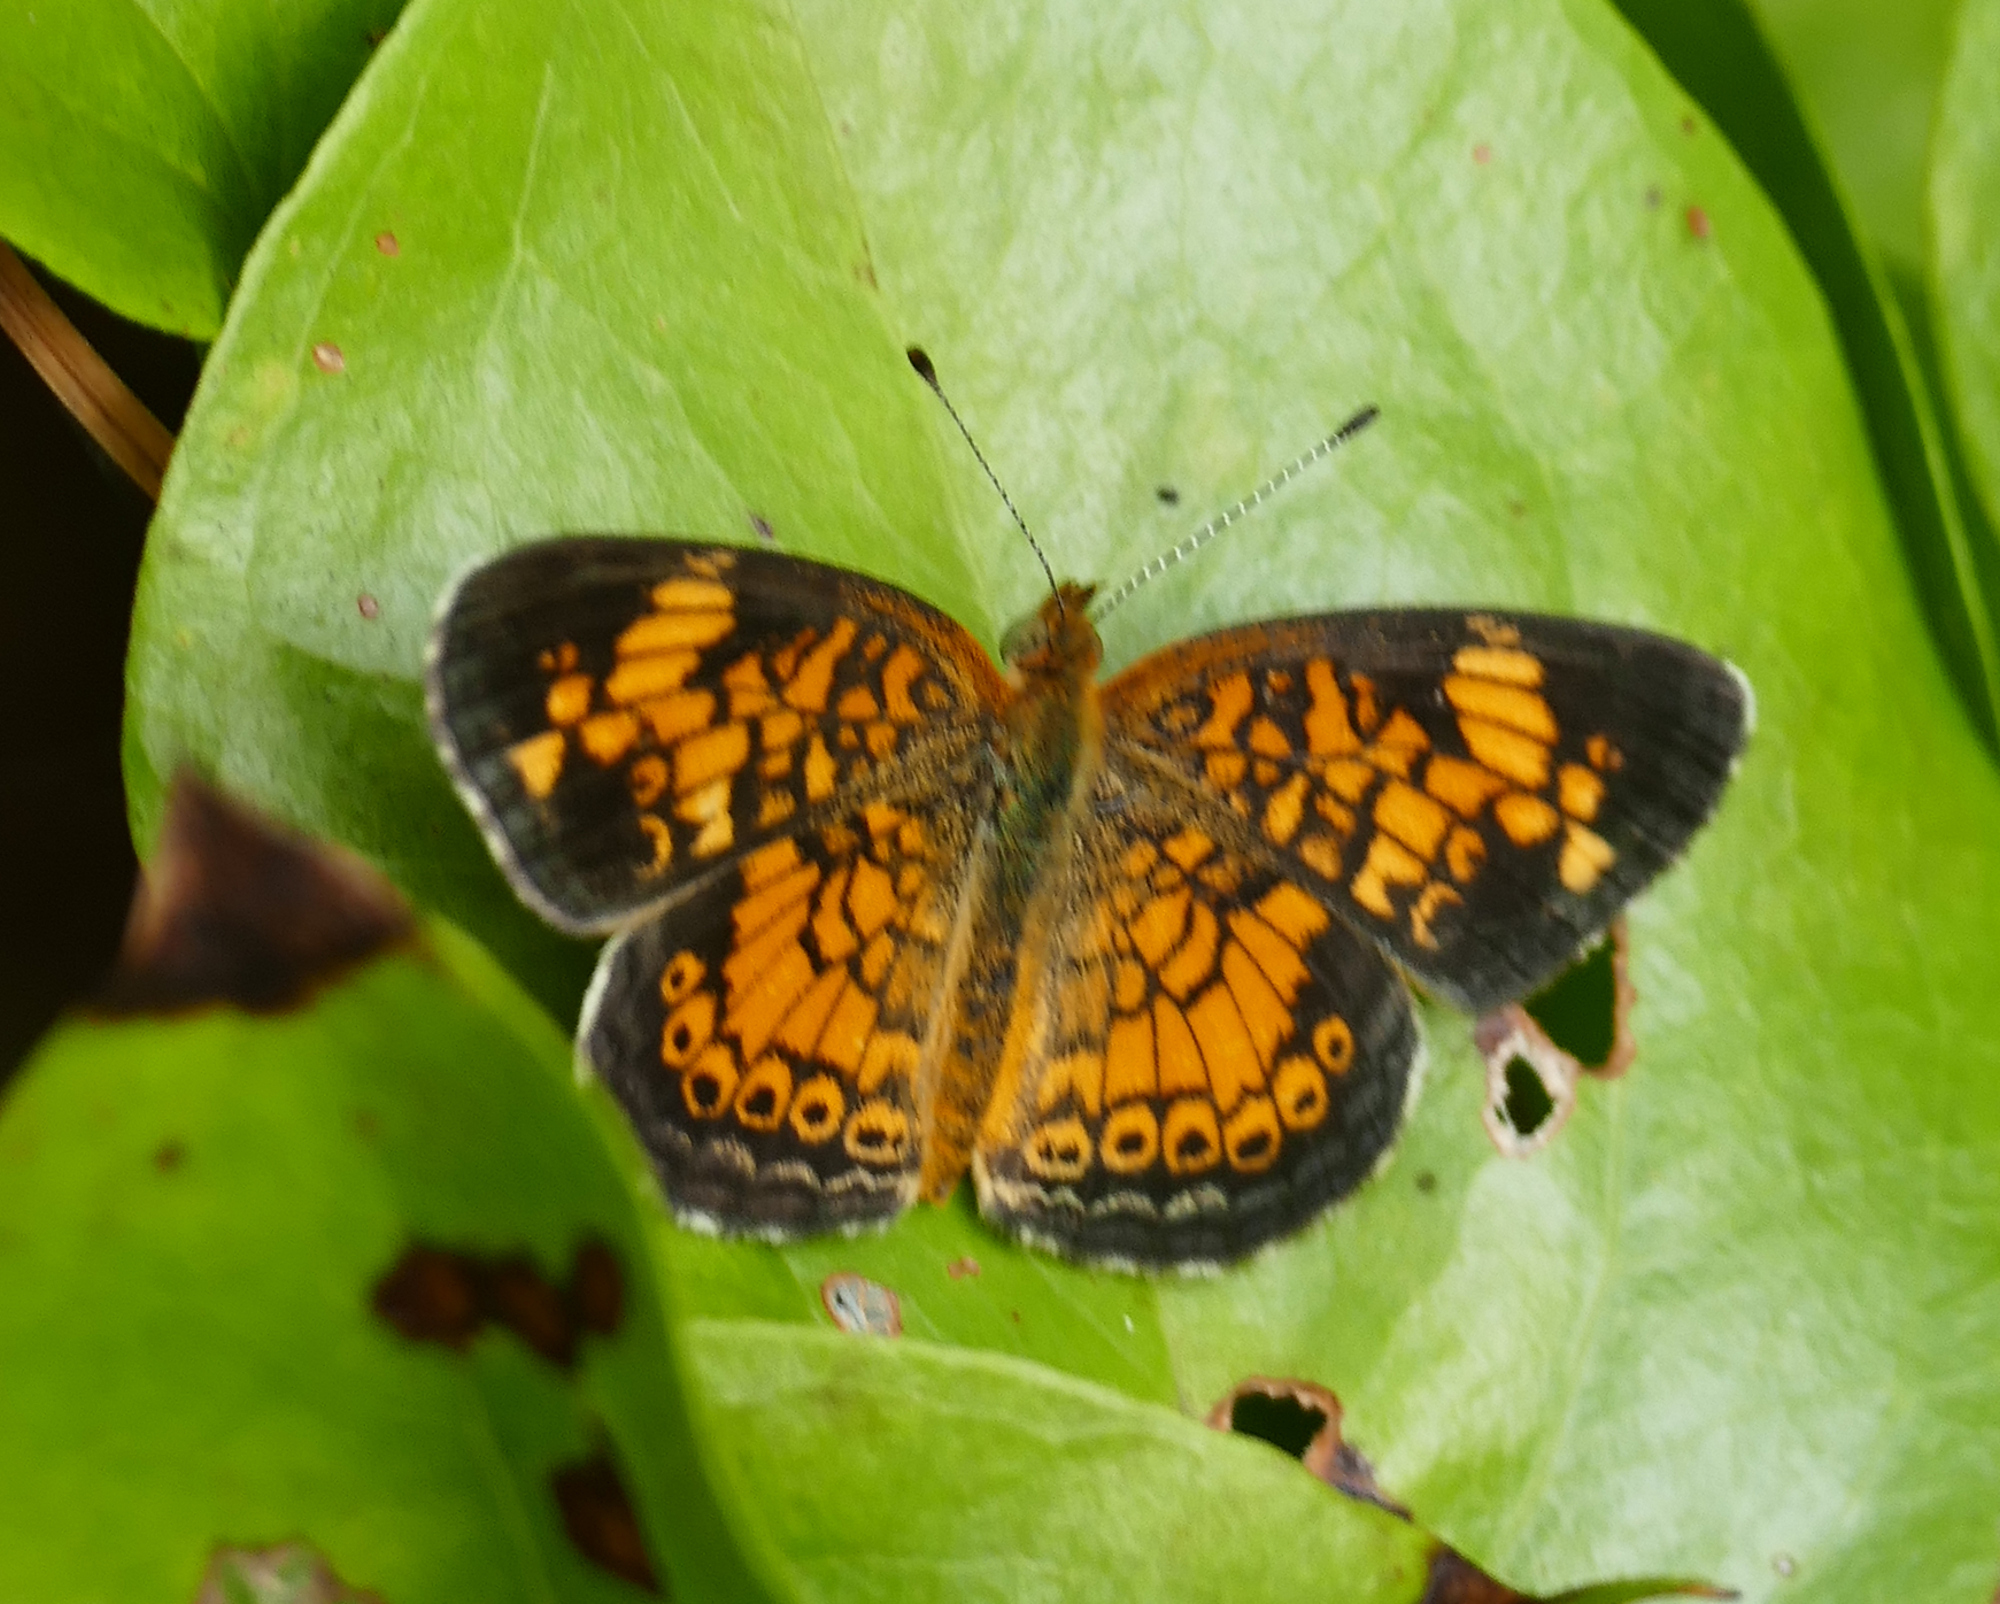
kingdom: Animalia
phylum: Arthropoda
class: Insecta
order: Lepidoptera
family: Nymphalidae
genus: Phyciodes
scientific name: Phyciodes tharos
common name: Pearl crescent
